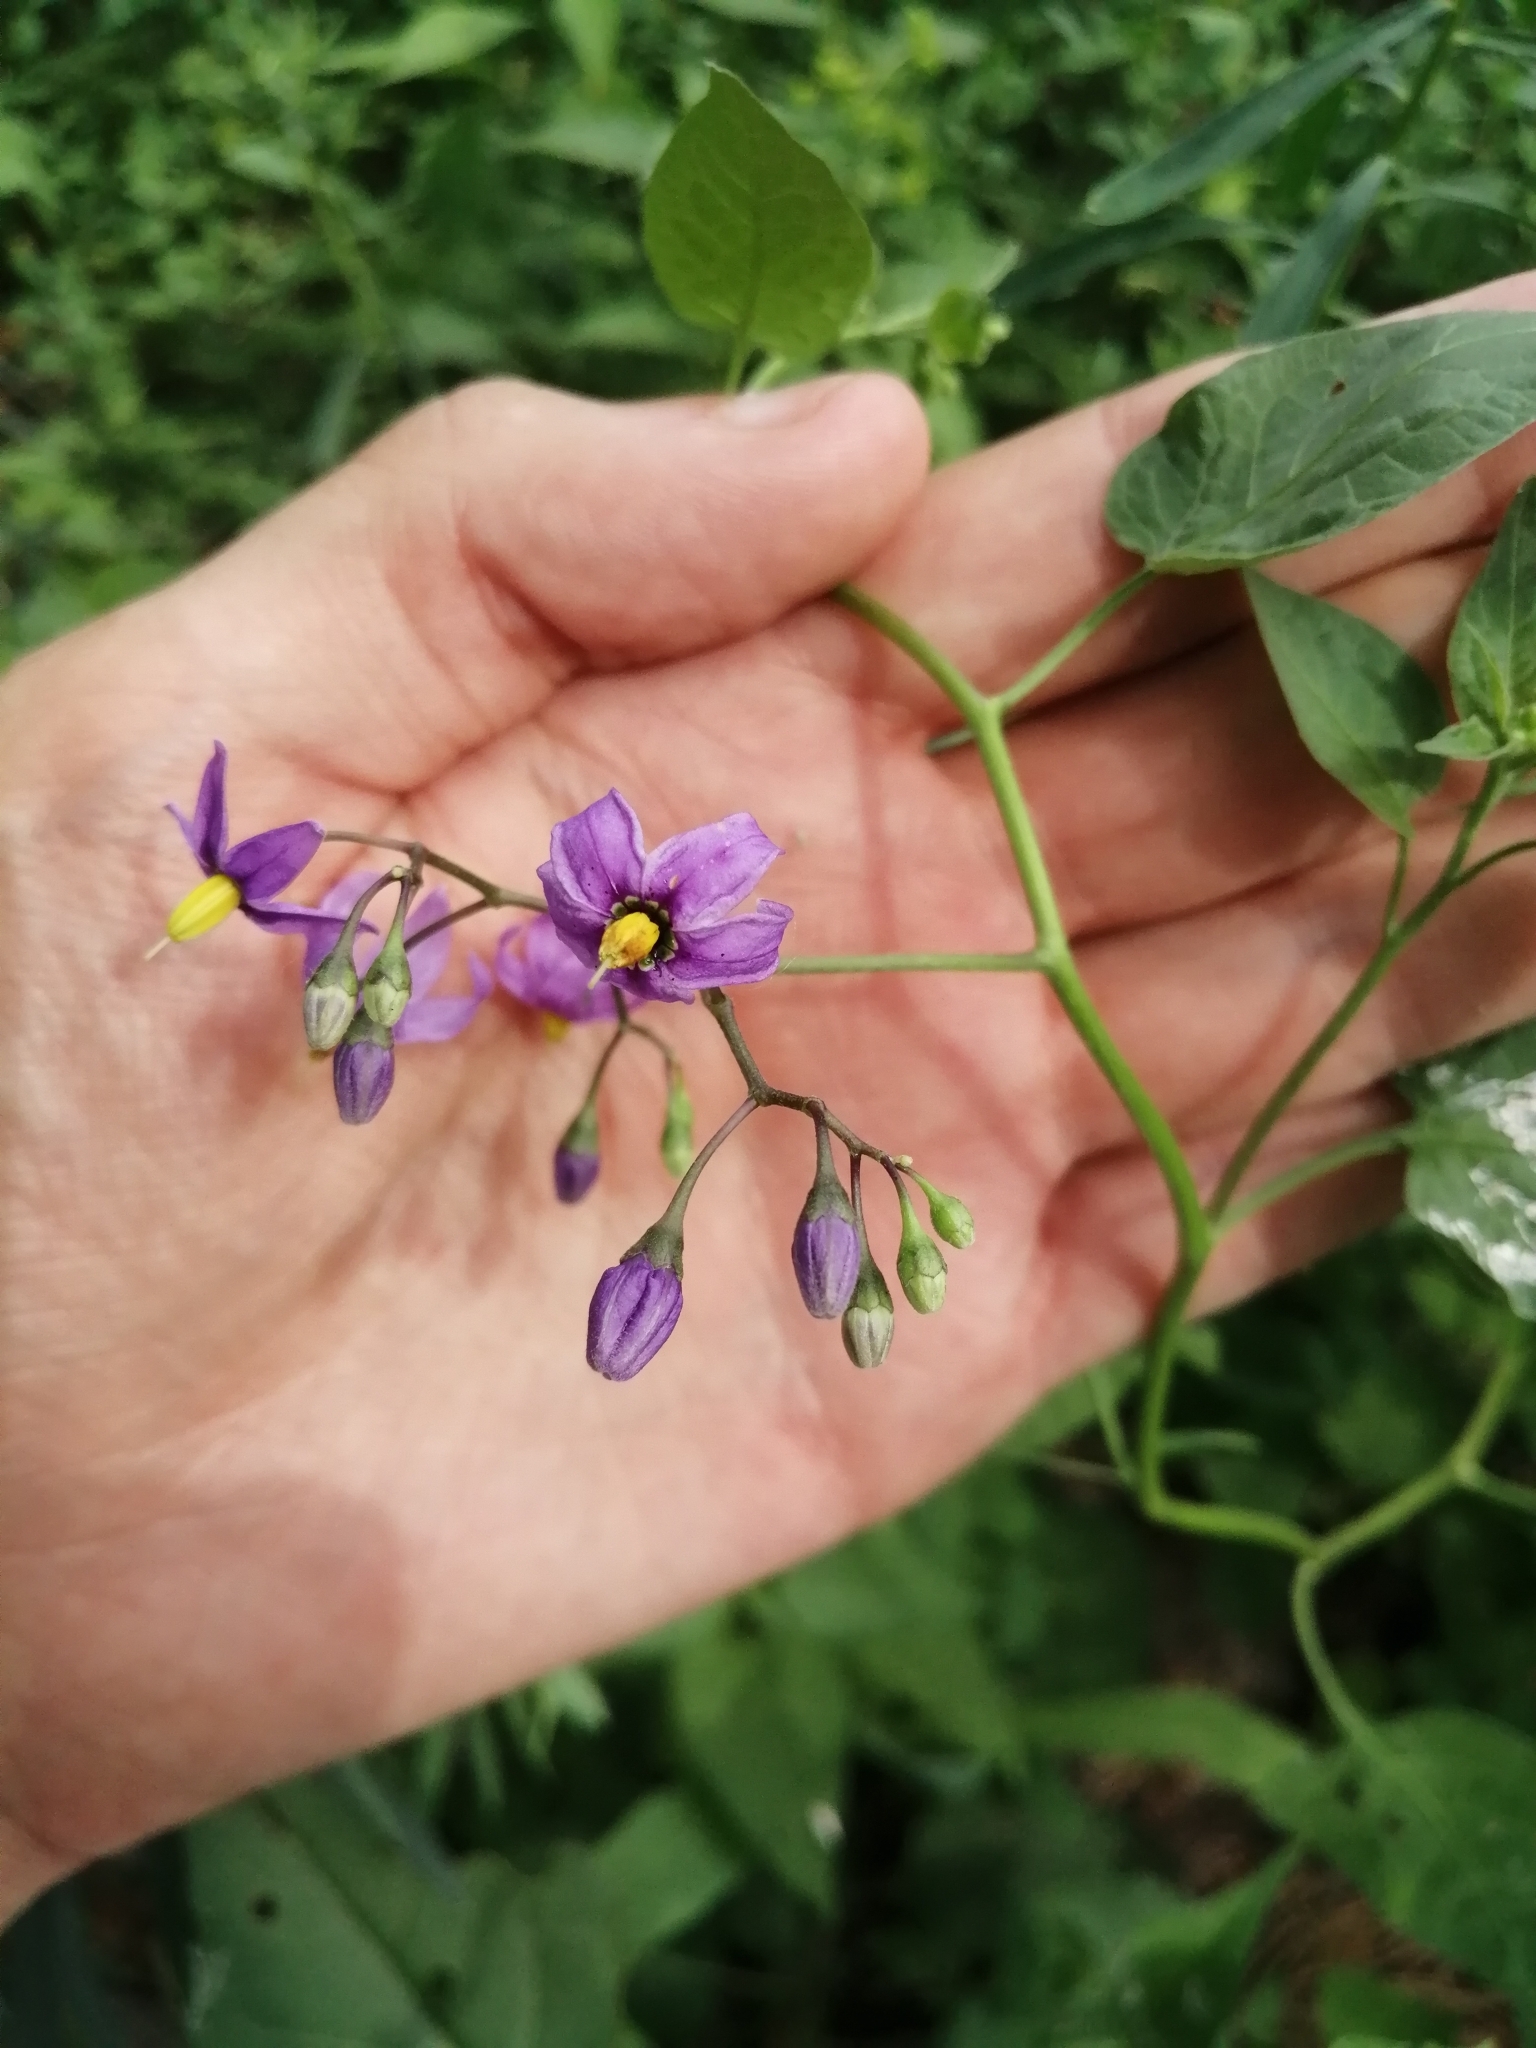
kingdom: Plantae
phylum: Tracheophyta
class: Magnoliopsida
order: Solanales
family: Solanaceae
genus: Solanum
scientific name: Solanum dulcamara
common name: Climbing nightshade
